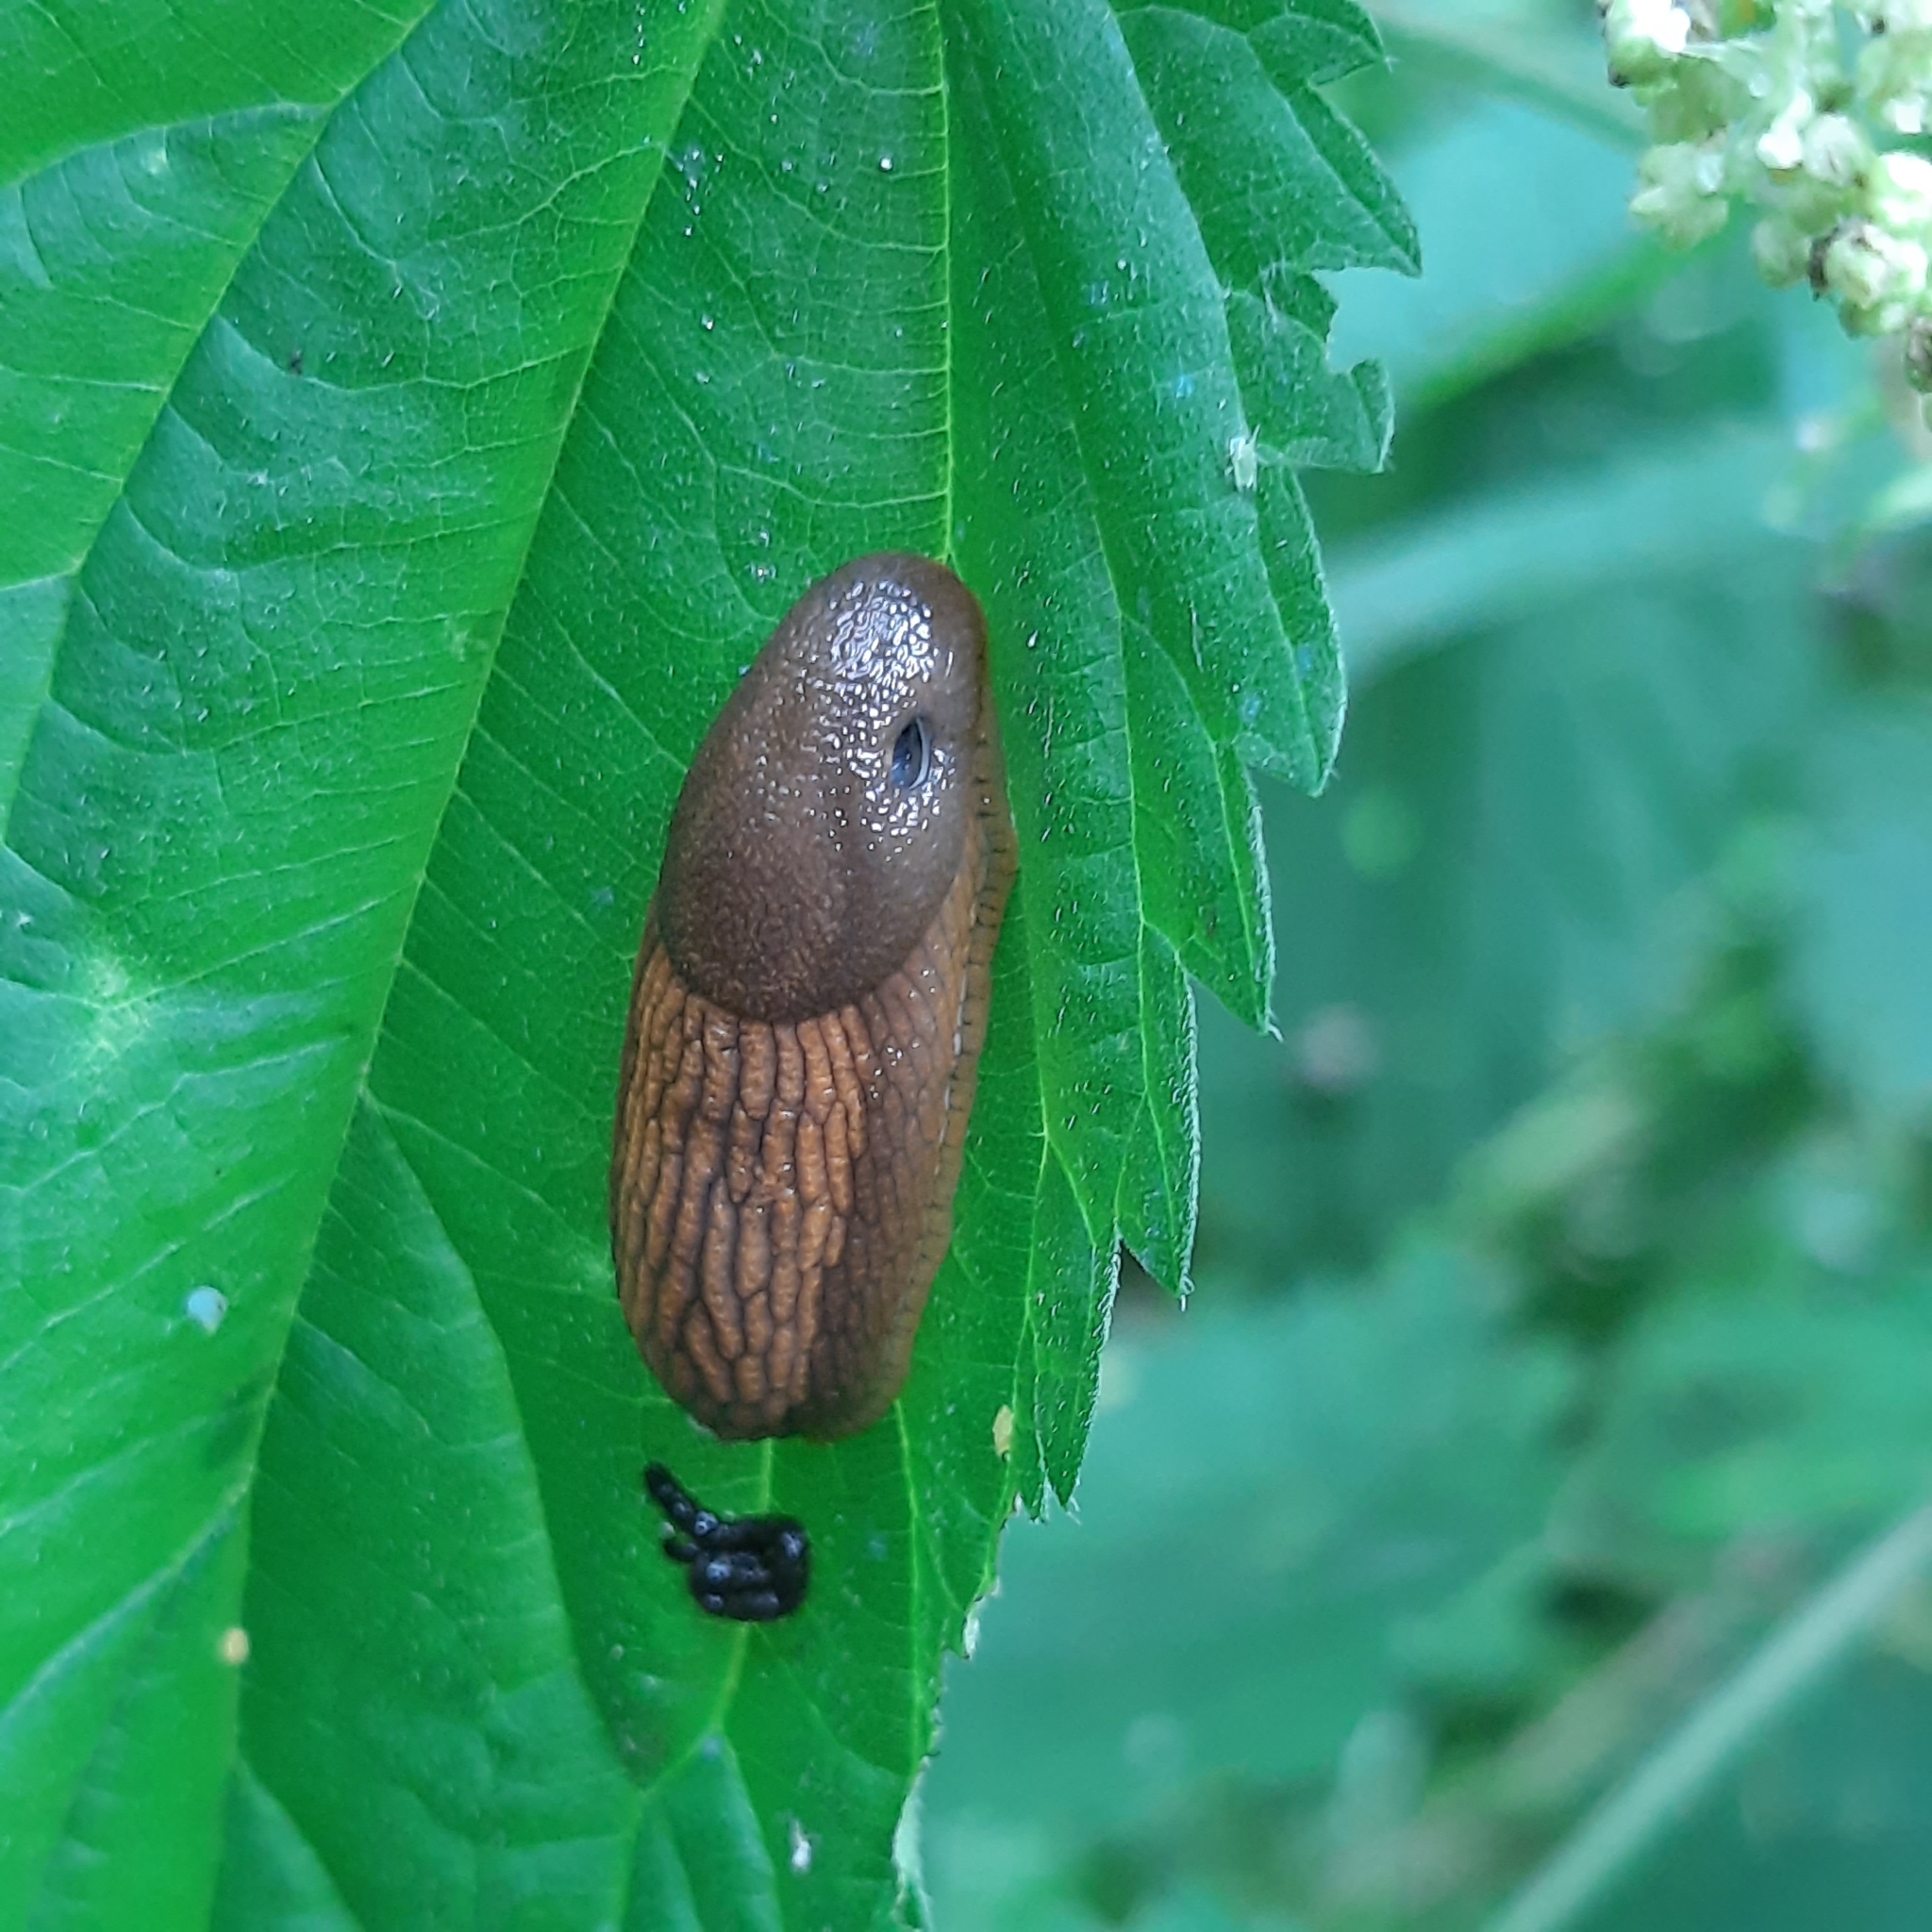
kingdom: Animalia
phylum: Mollusca
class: Gastropoda
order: Stylommatophora
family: Arionidae
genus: Arion
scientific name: Arion vulgaris
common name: Lusitanian slug
